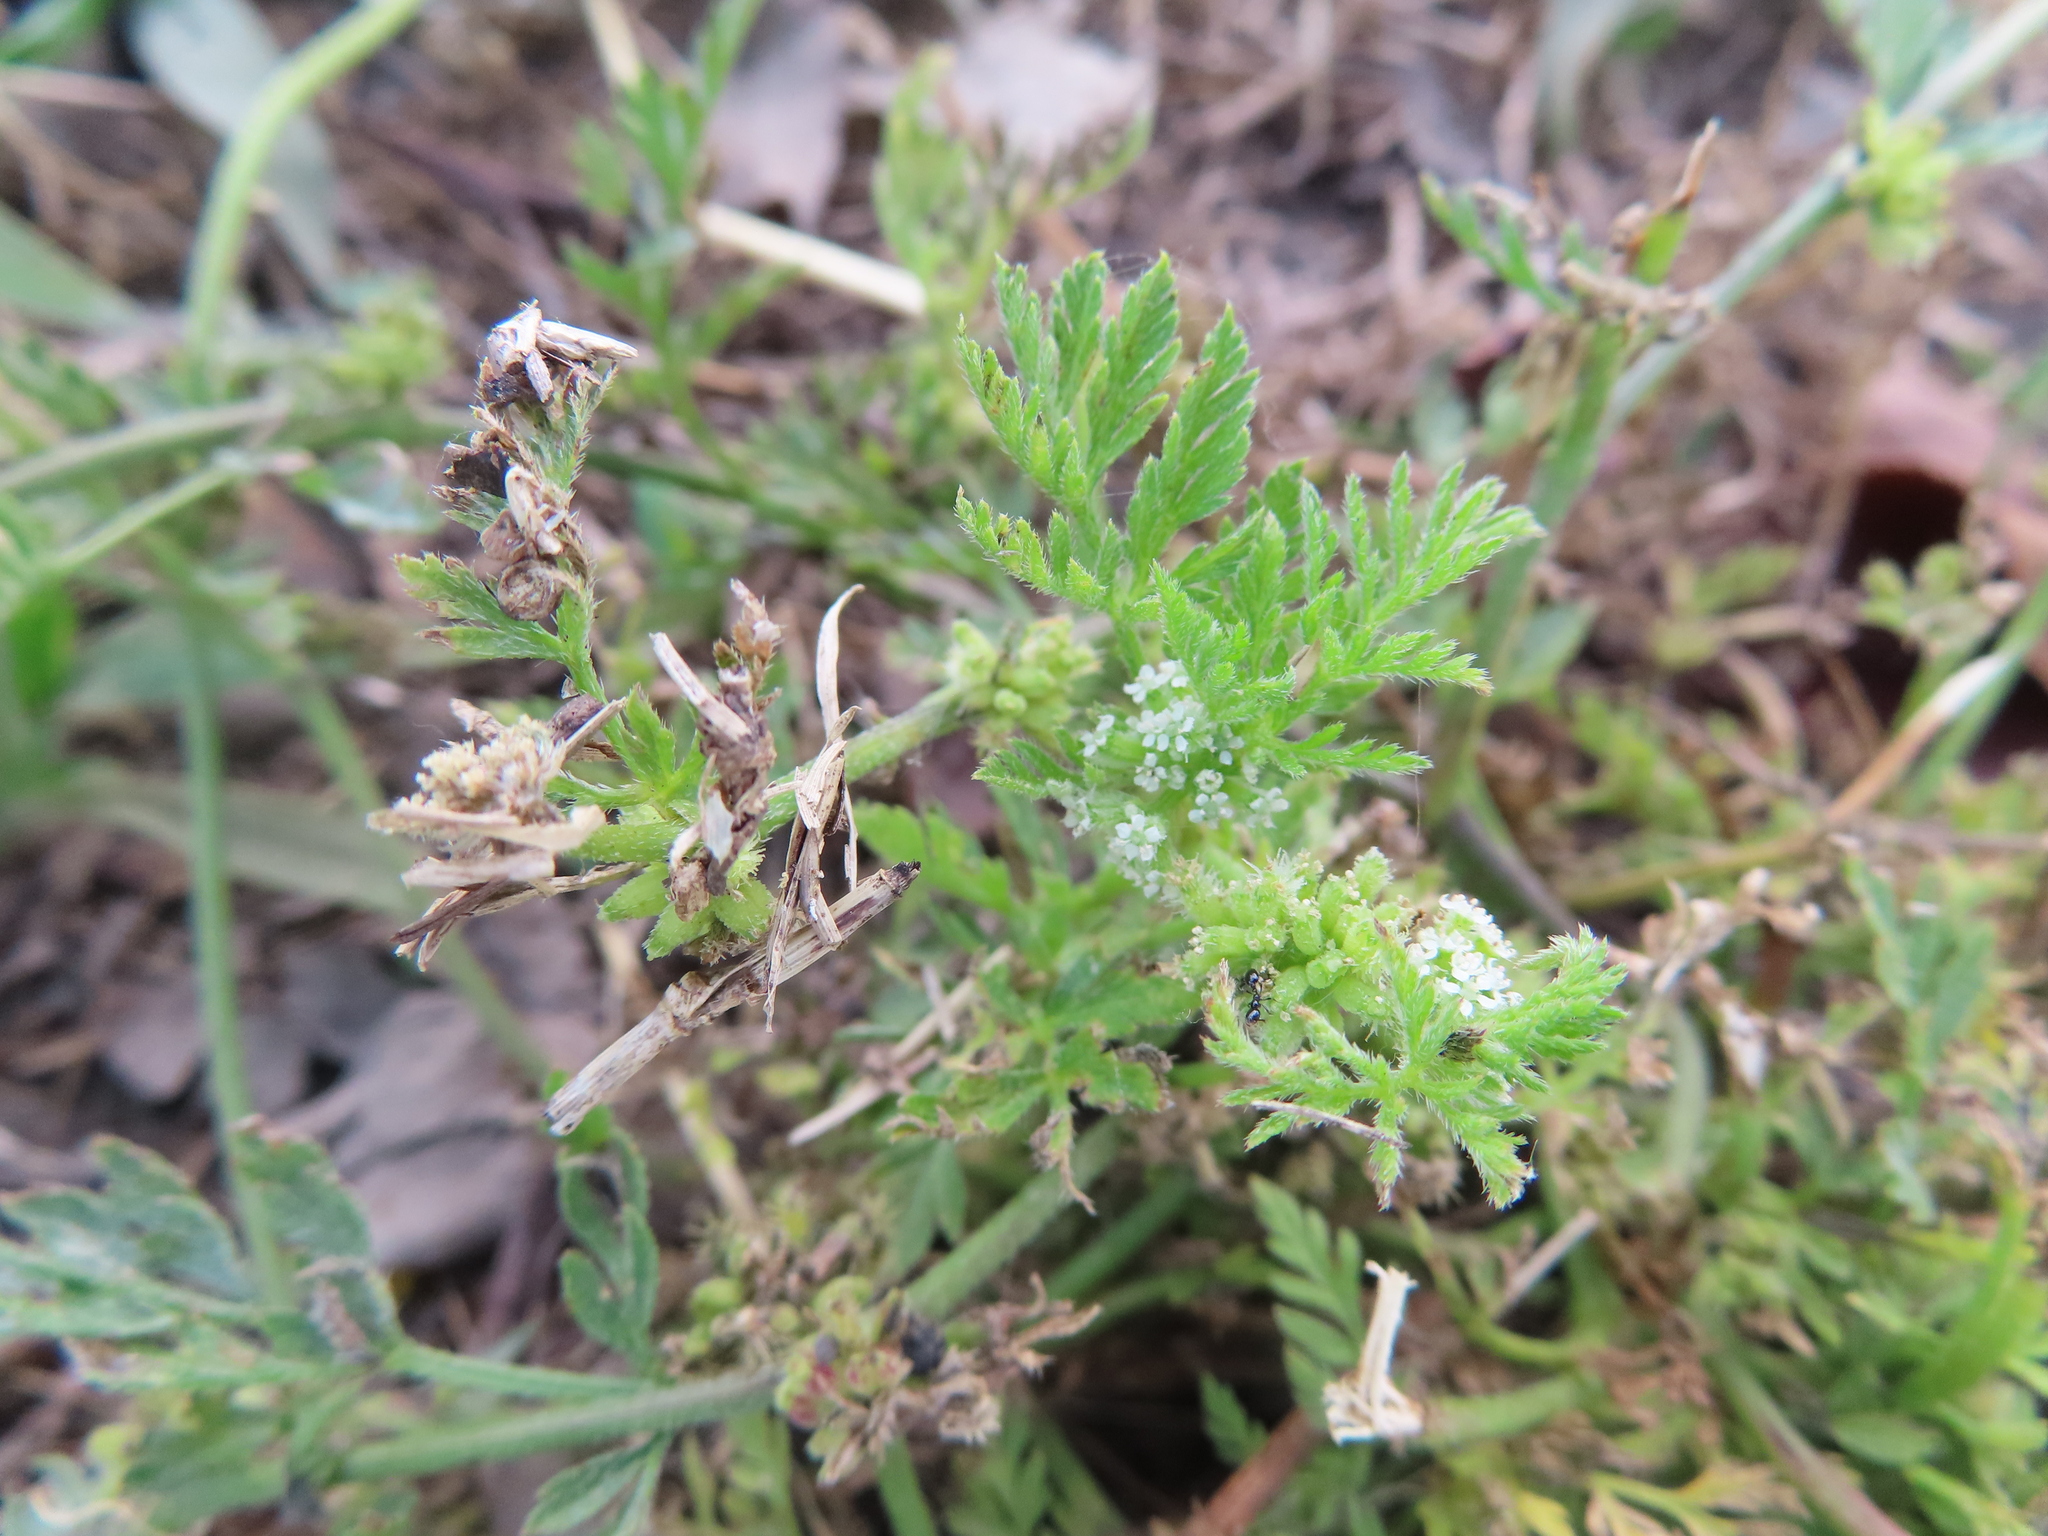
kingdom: Plantae
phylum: Tracheophyta
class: Magnoliopsida
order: Apiales
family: Apiaceae
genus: Torilis
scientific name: Torilis nodosa
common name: Knotted hedge-parsley
